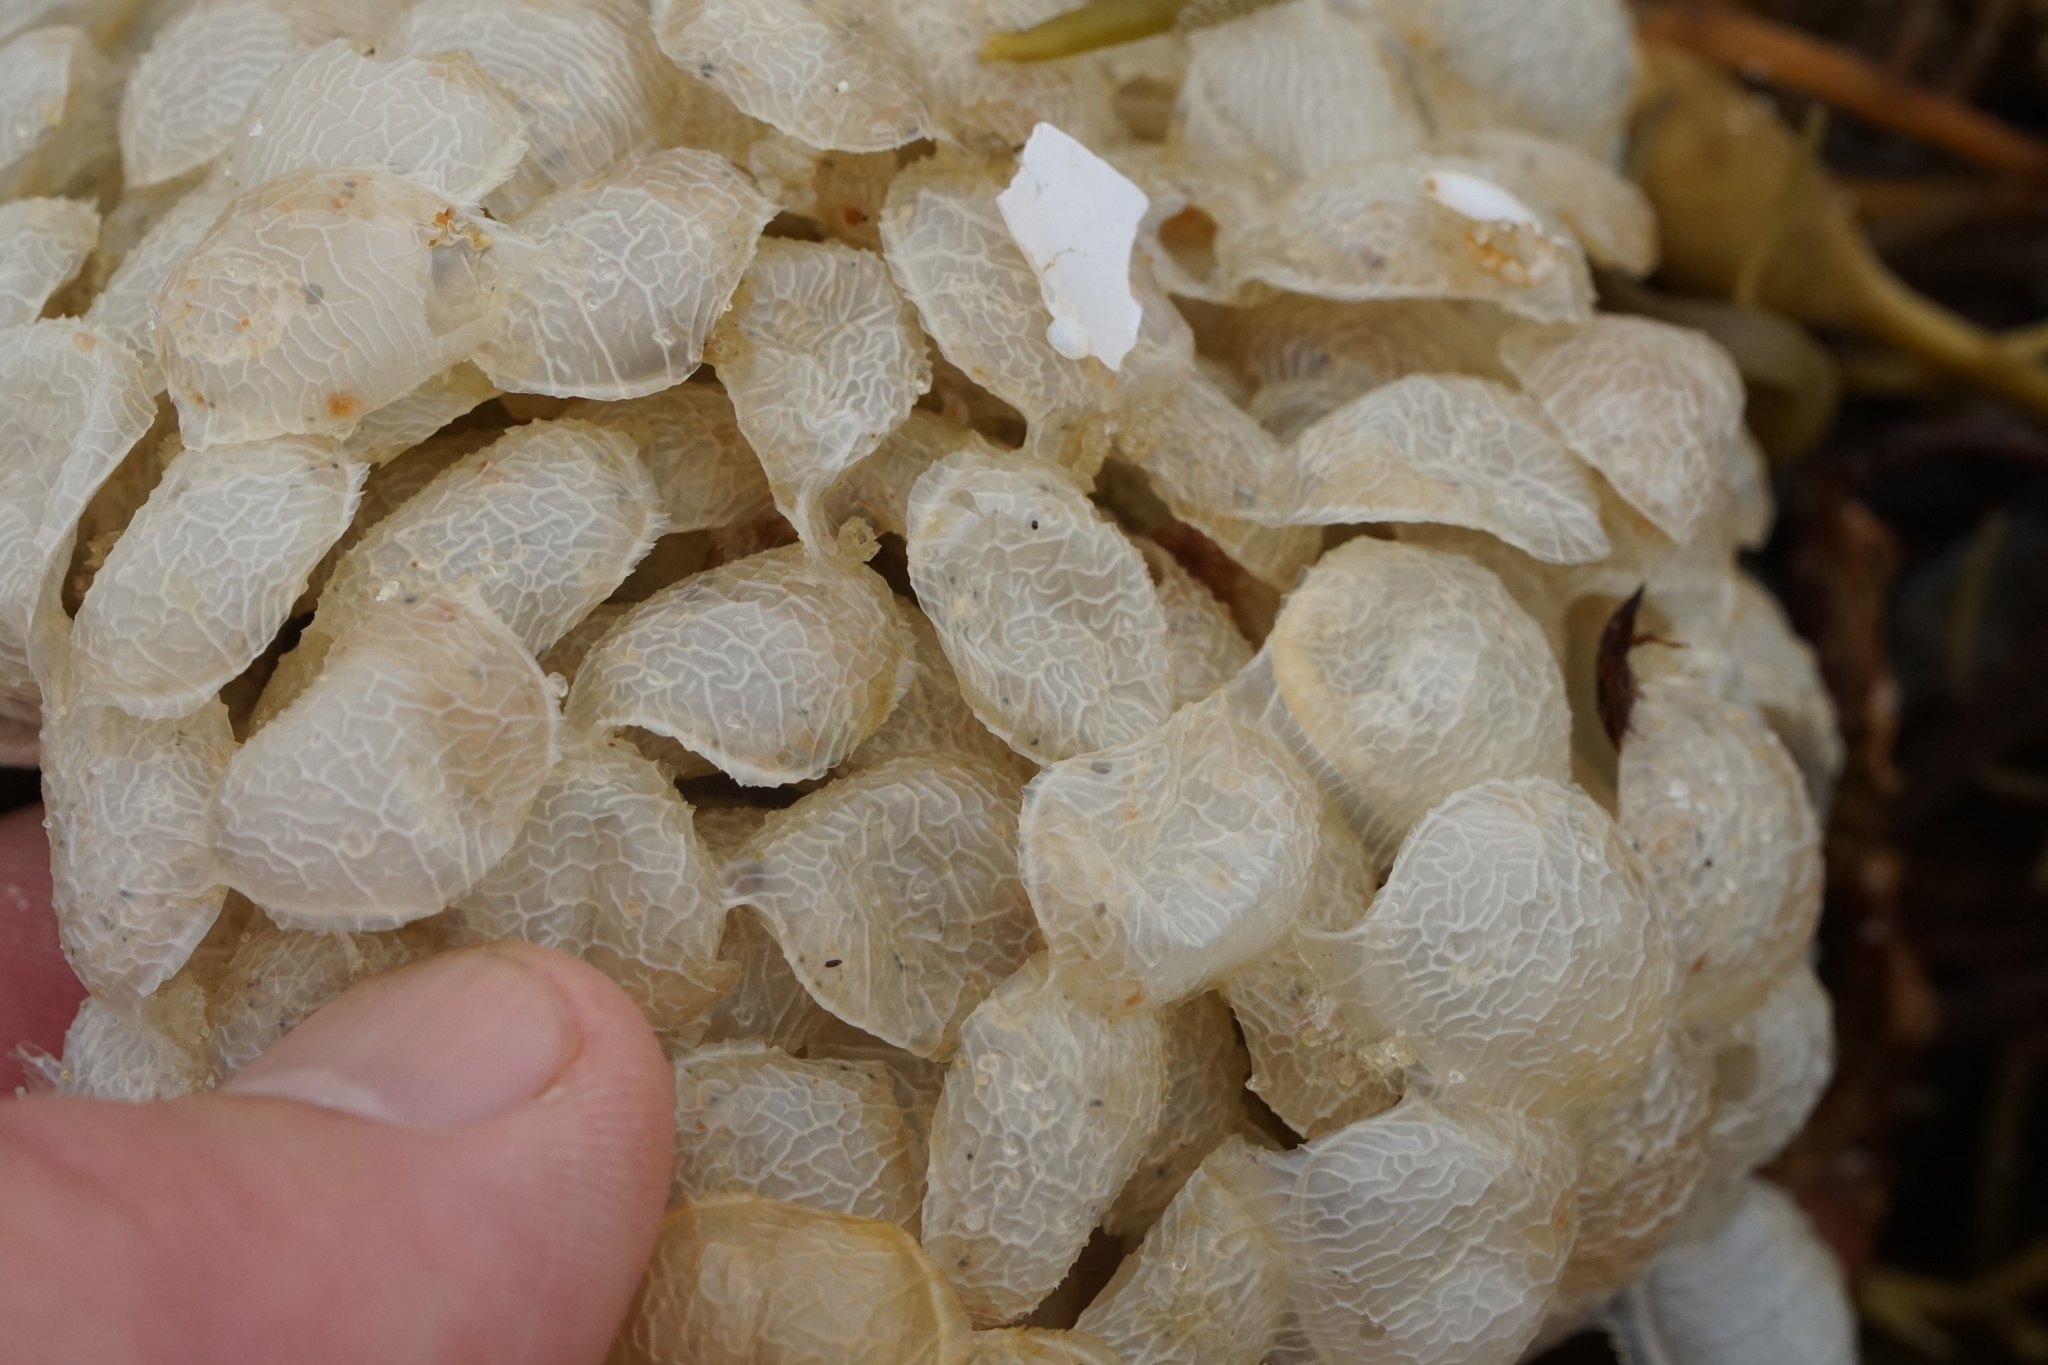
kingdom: Animalia
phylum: Mollusca
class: Gastropoda
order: Neogastropoda
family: Buccinidae
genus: Buccinum
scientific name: Buccinum undatum
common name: Common whelk
